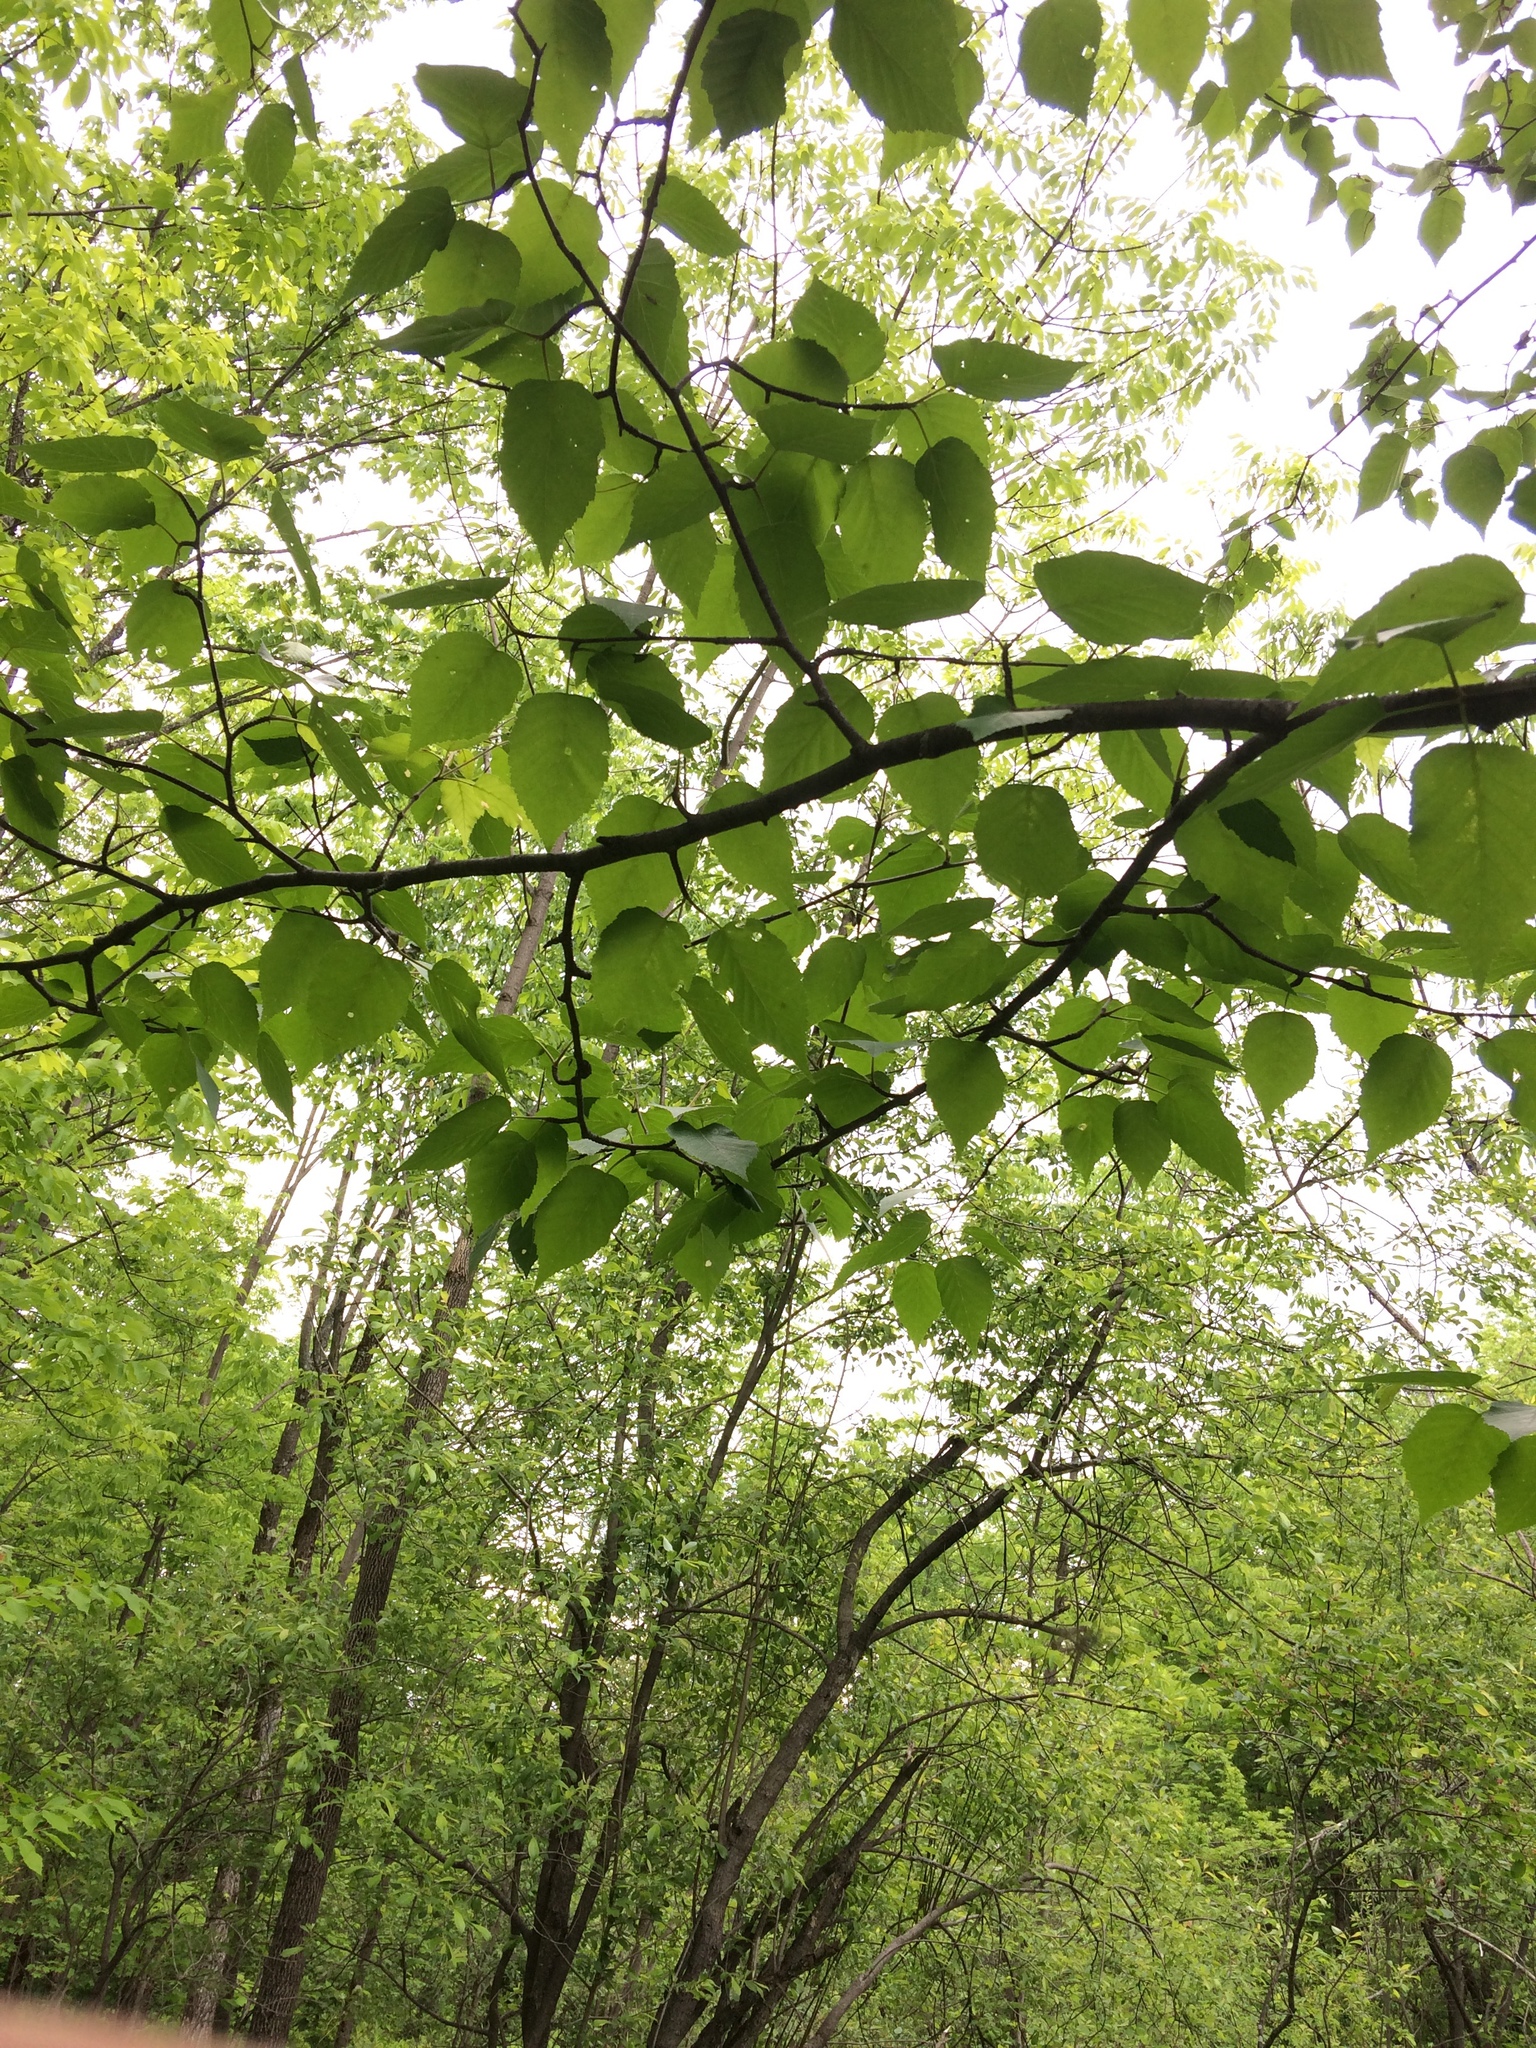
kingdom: Plantae
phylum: Tracheophyta
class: Magnoliopsida
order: Fagales
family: Betulaceae
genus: Betula
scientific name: Betula papyrifera
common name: Paper birch
